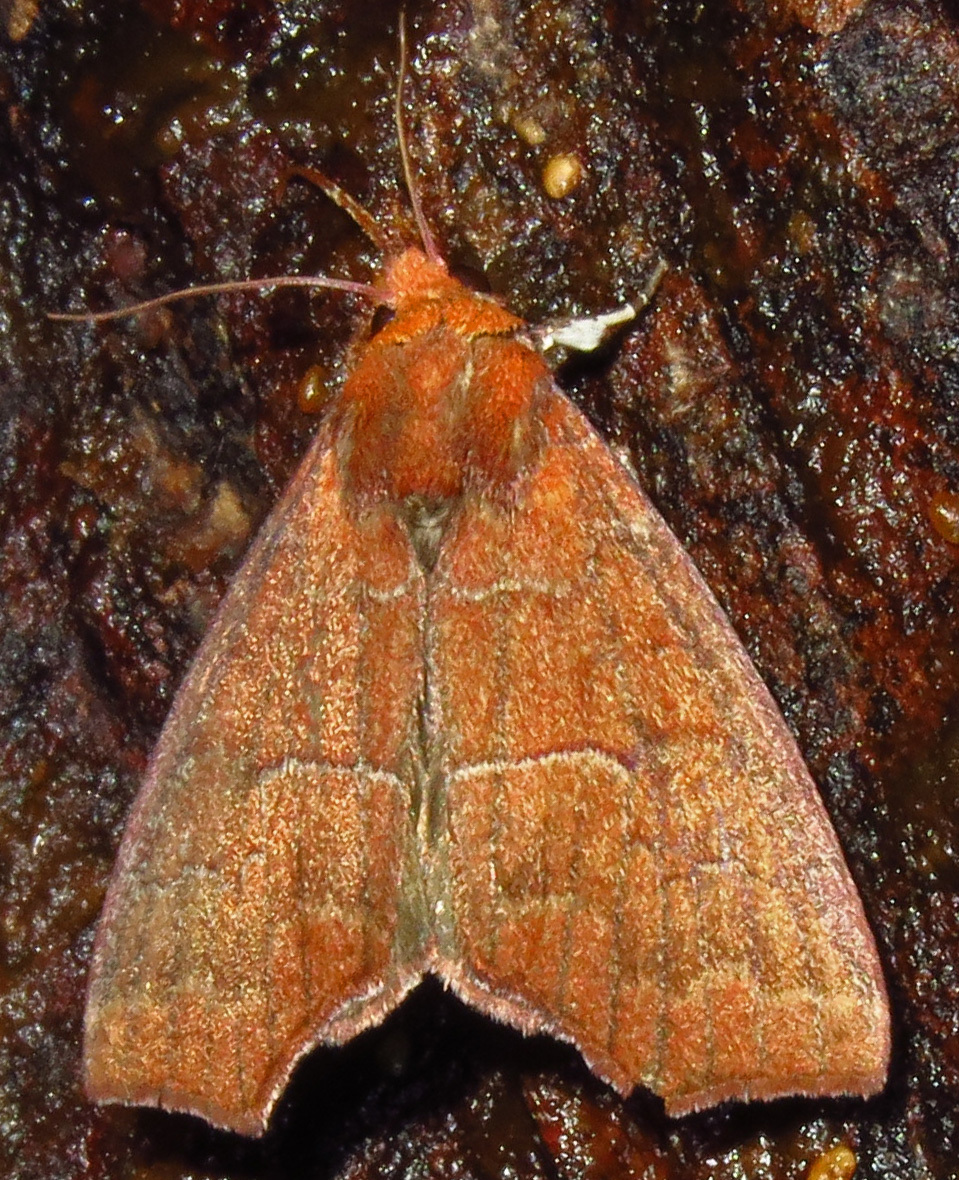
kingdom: Animalia
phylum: Arthropoda
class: Insecta
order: Lepidoptera
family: Erebidae
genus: Rusicada
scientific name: Rusicada privata
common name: Hibiscus leaf caterpillar moth
